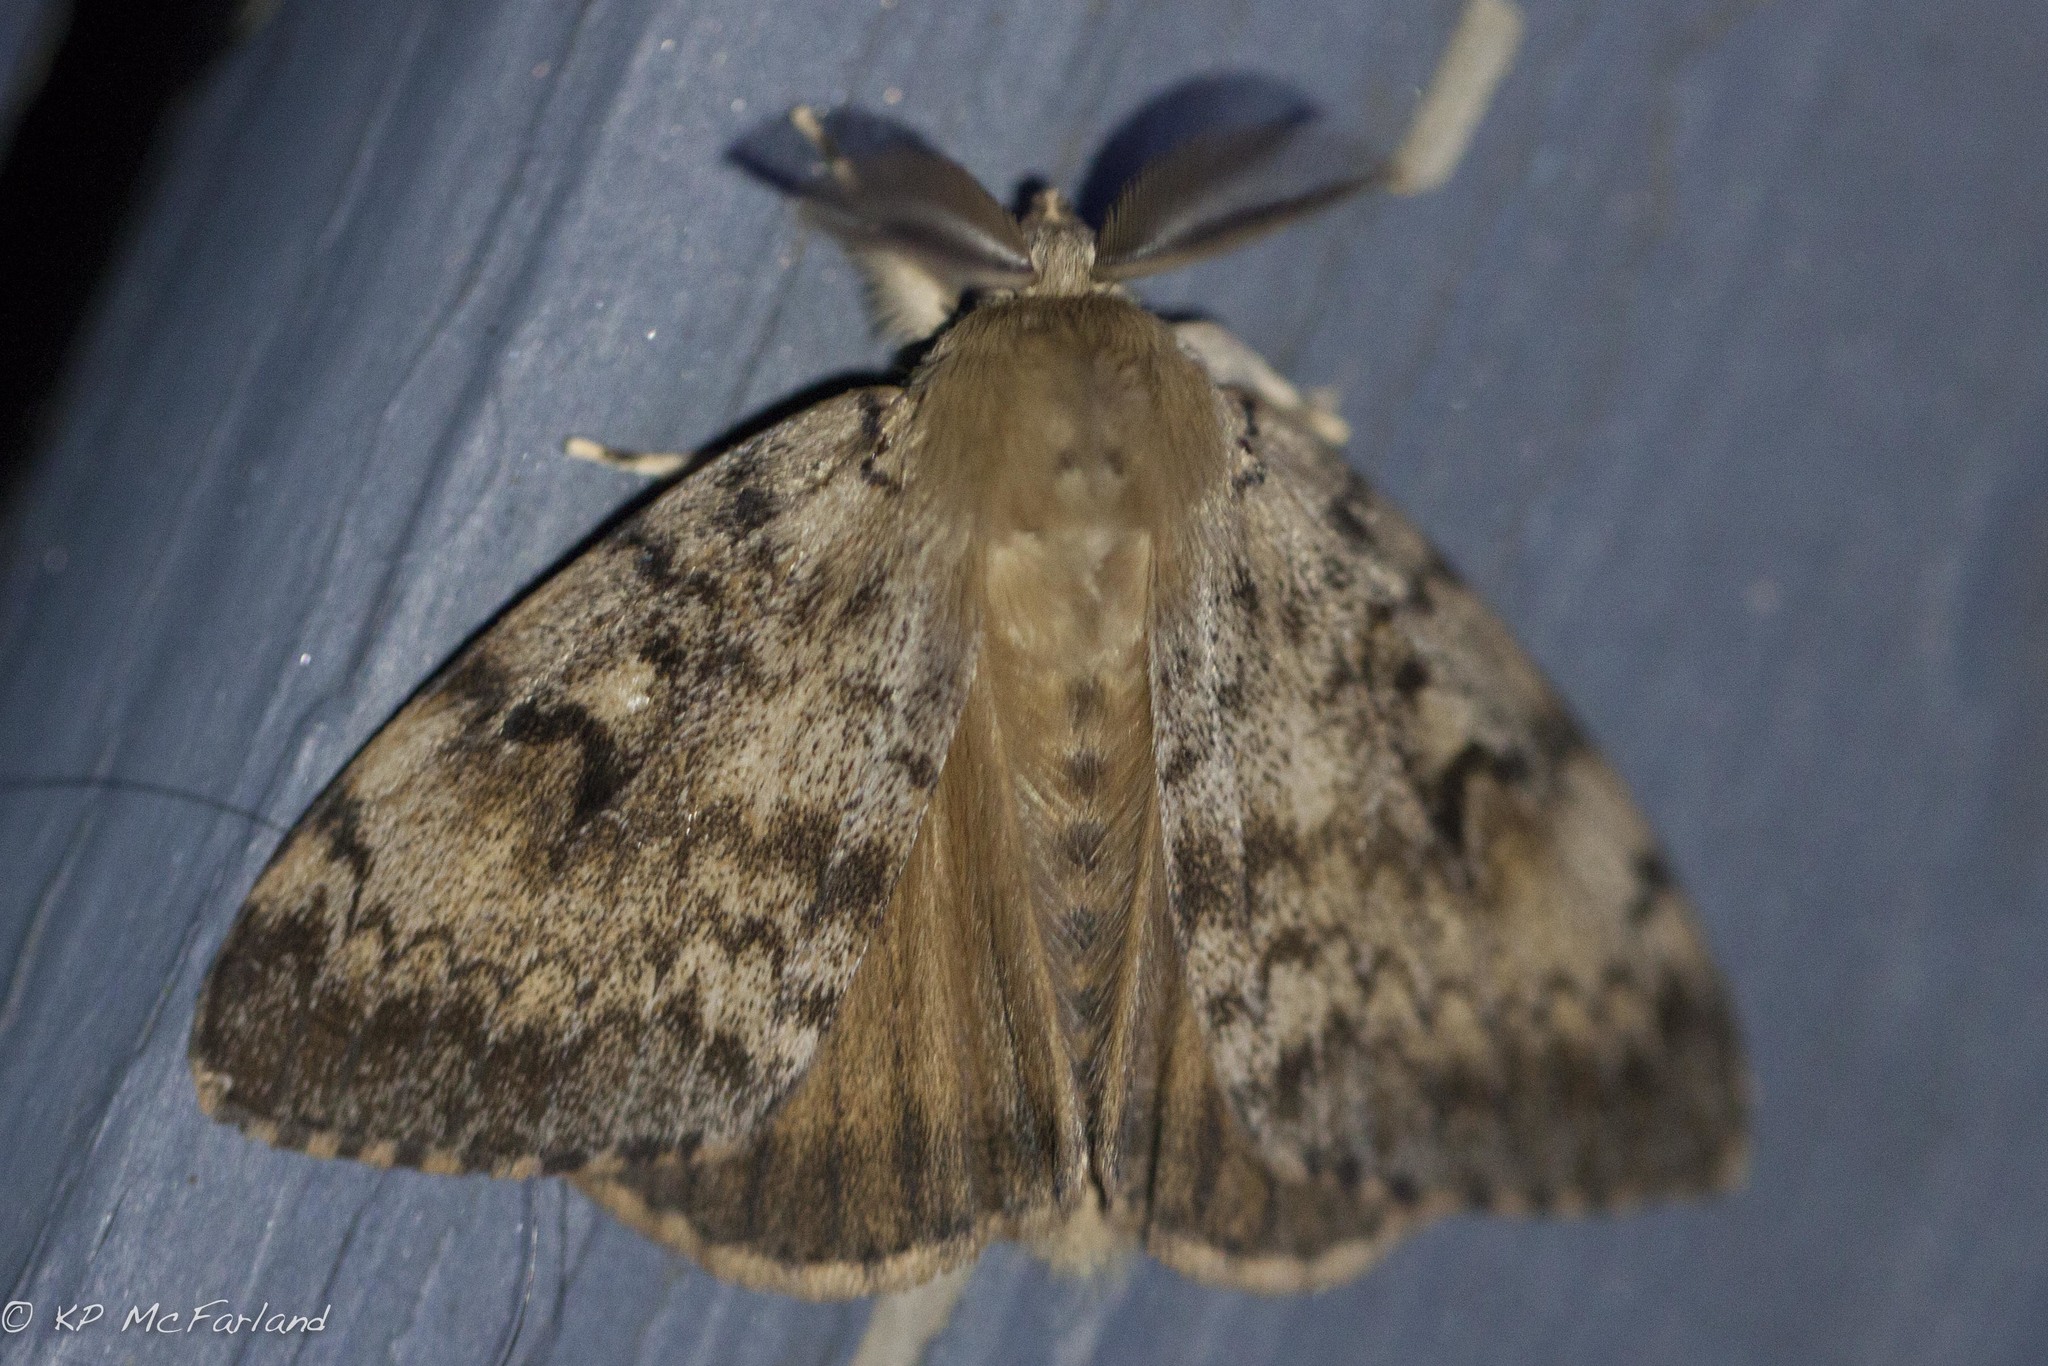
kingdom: Animalia
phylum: Arthropoda
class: Insecta
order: Lepidoptera
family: Erebidae
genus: Lymantria
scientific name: Lymantria dispar
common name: Gypsy moth
